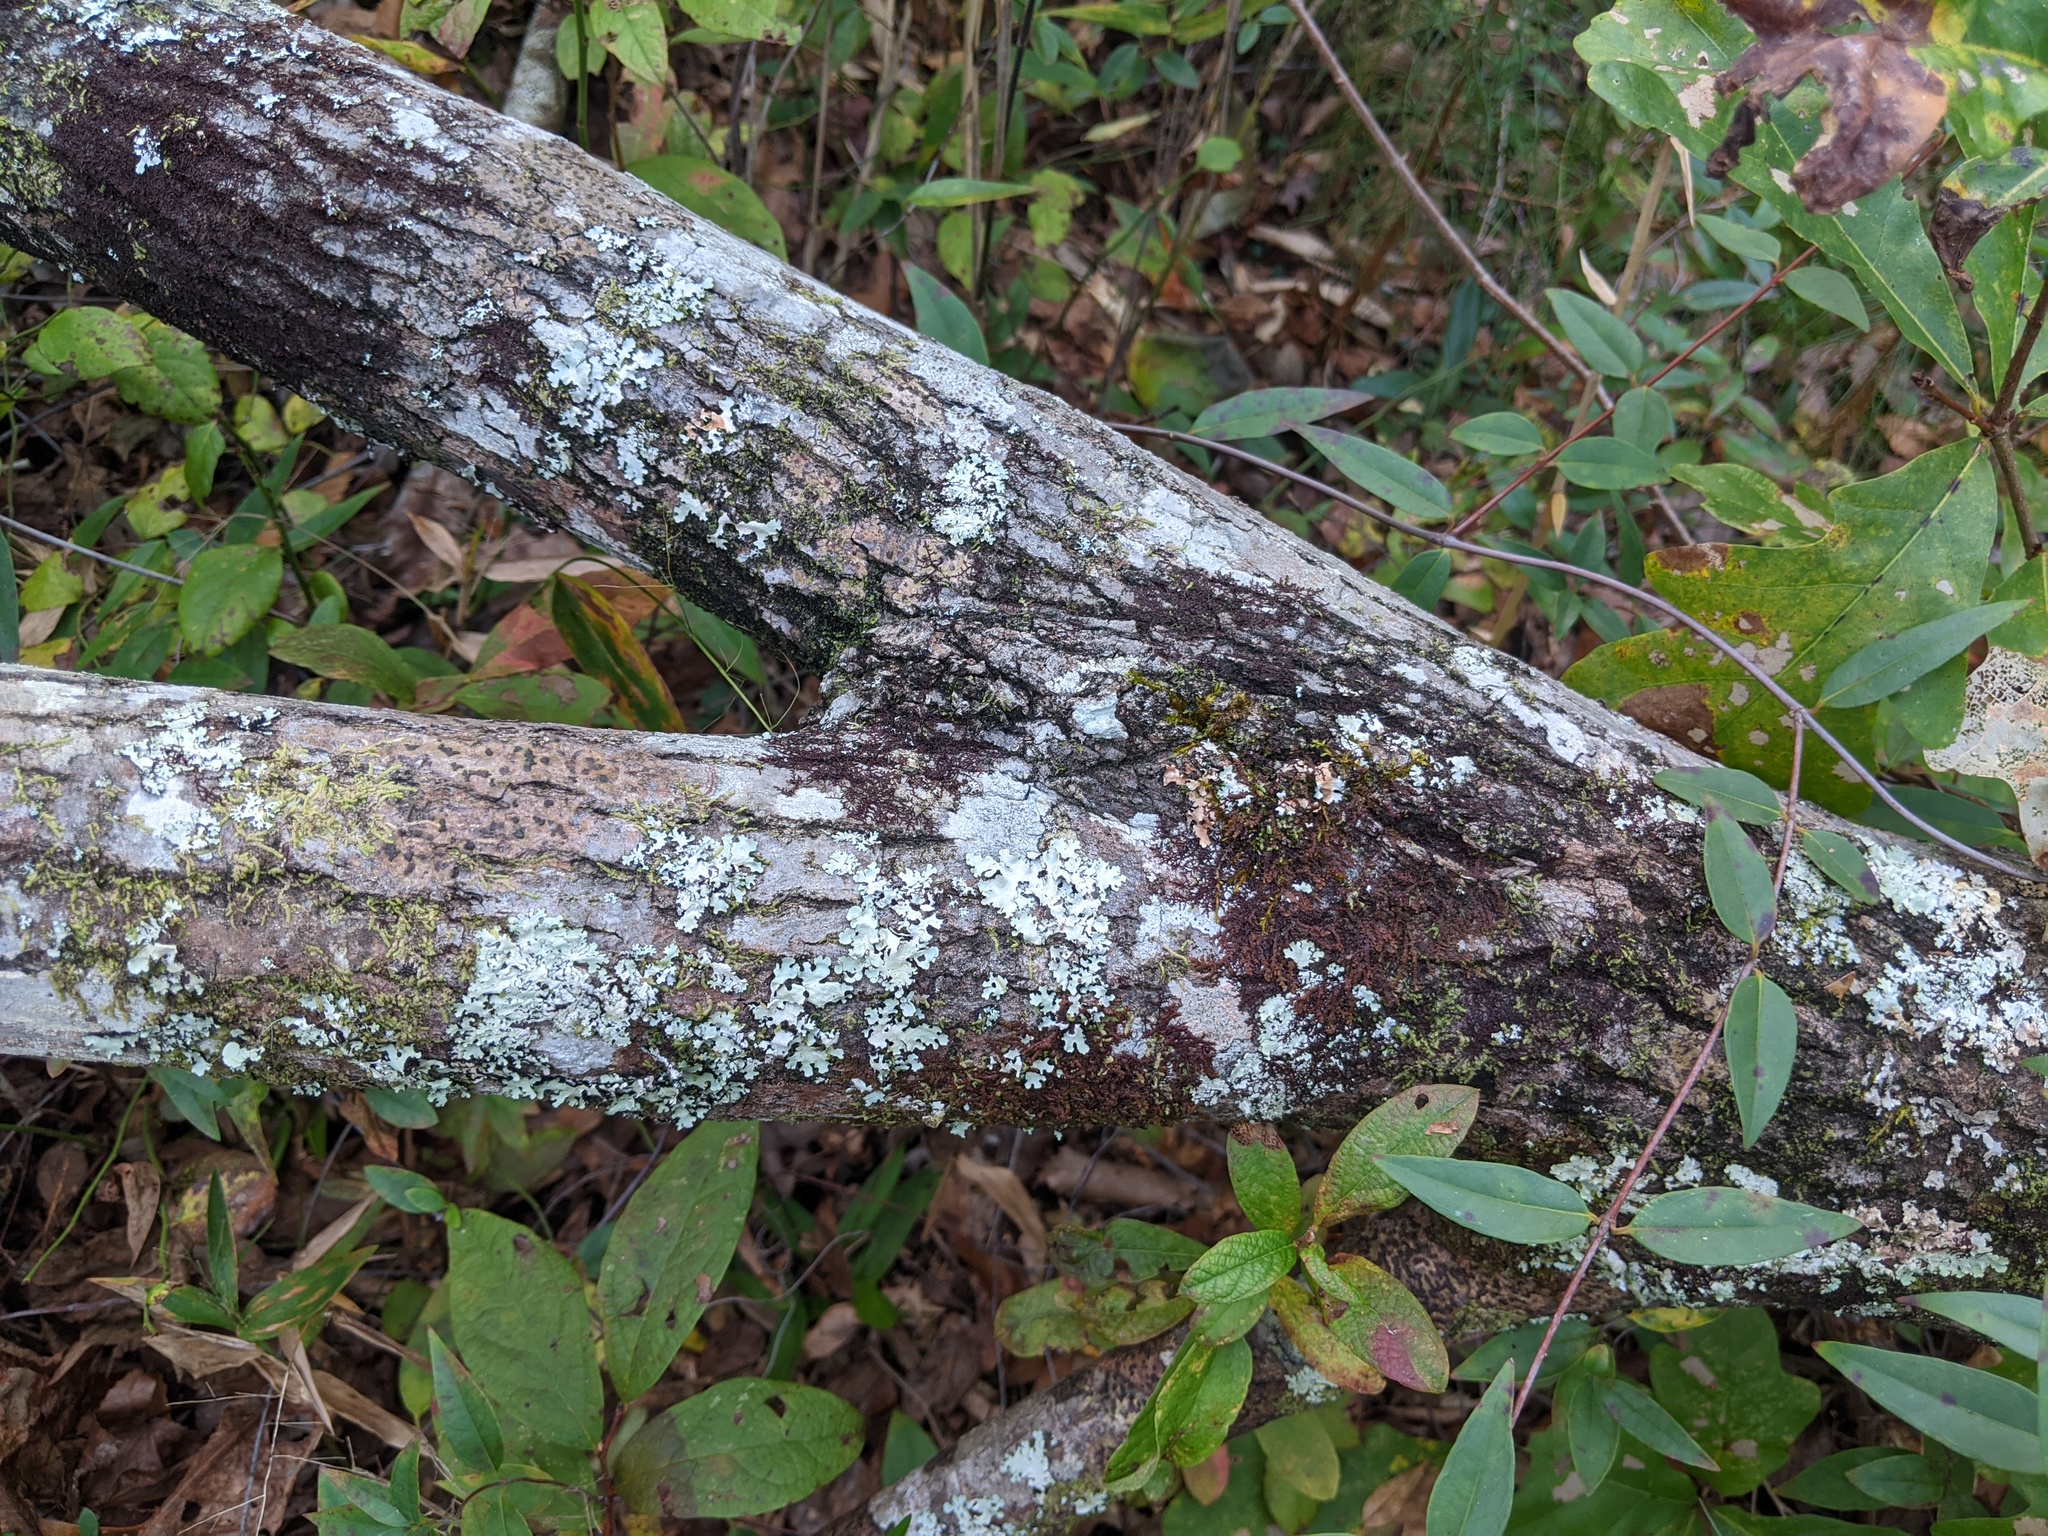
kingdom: Plantae
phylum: Tracheophyta
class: Magnoliopsida
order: Ericales
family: Ericaceae
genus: Oxydendrum
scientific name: Oxydendrum arboreum
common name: Sourwood
